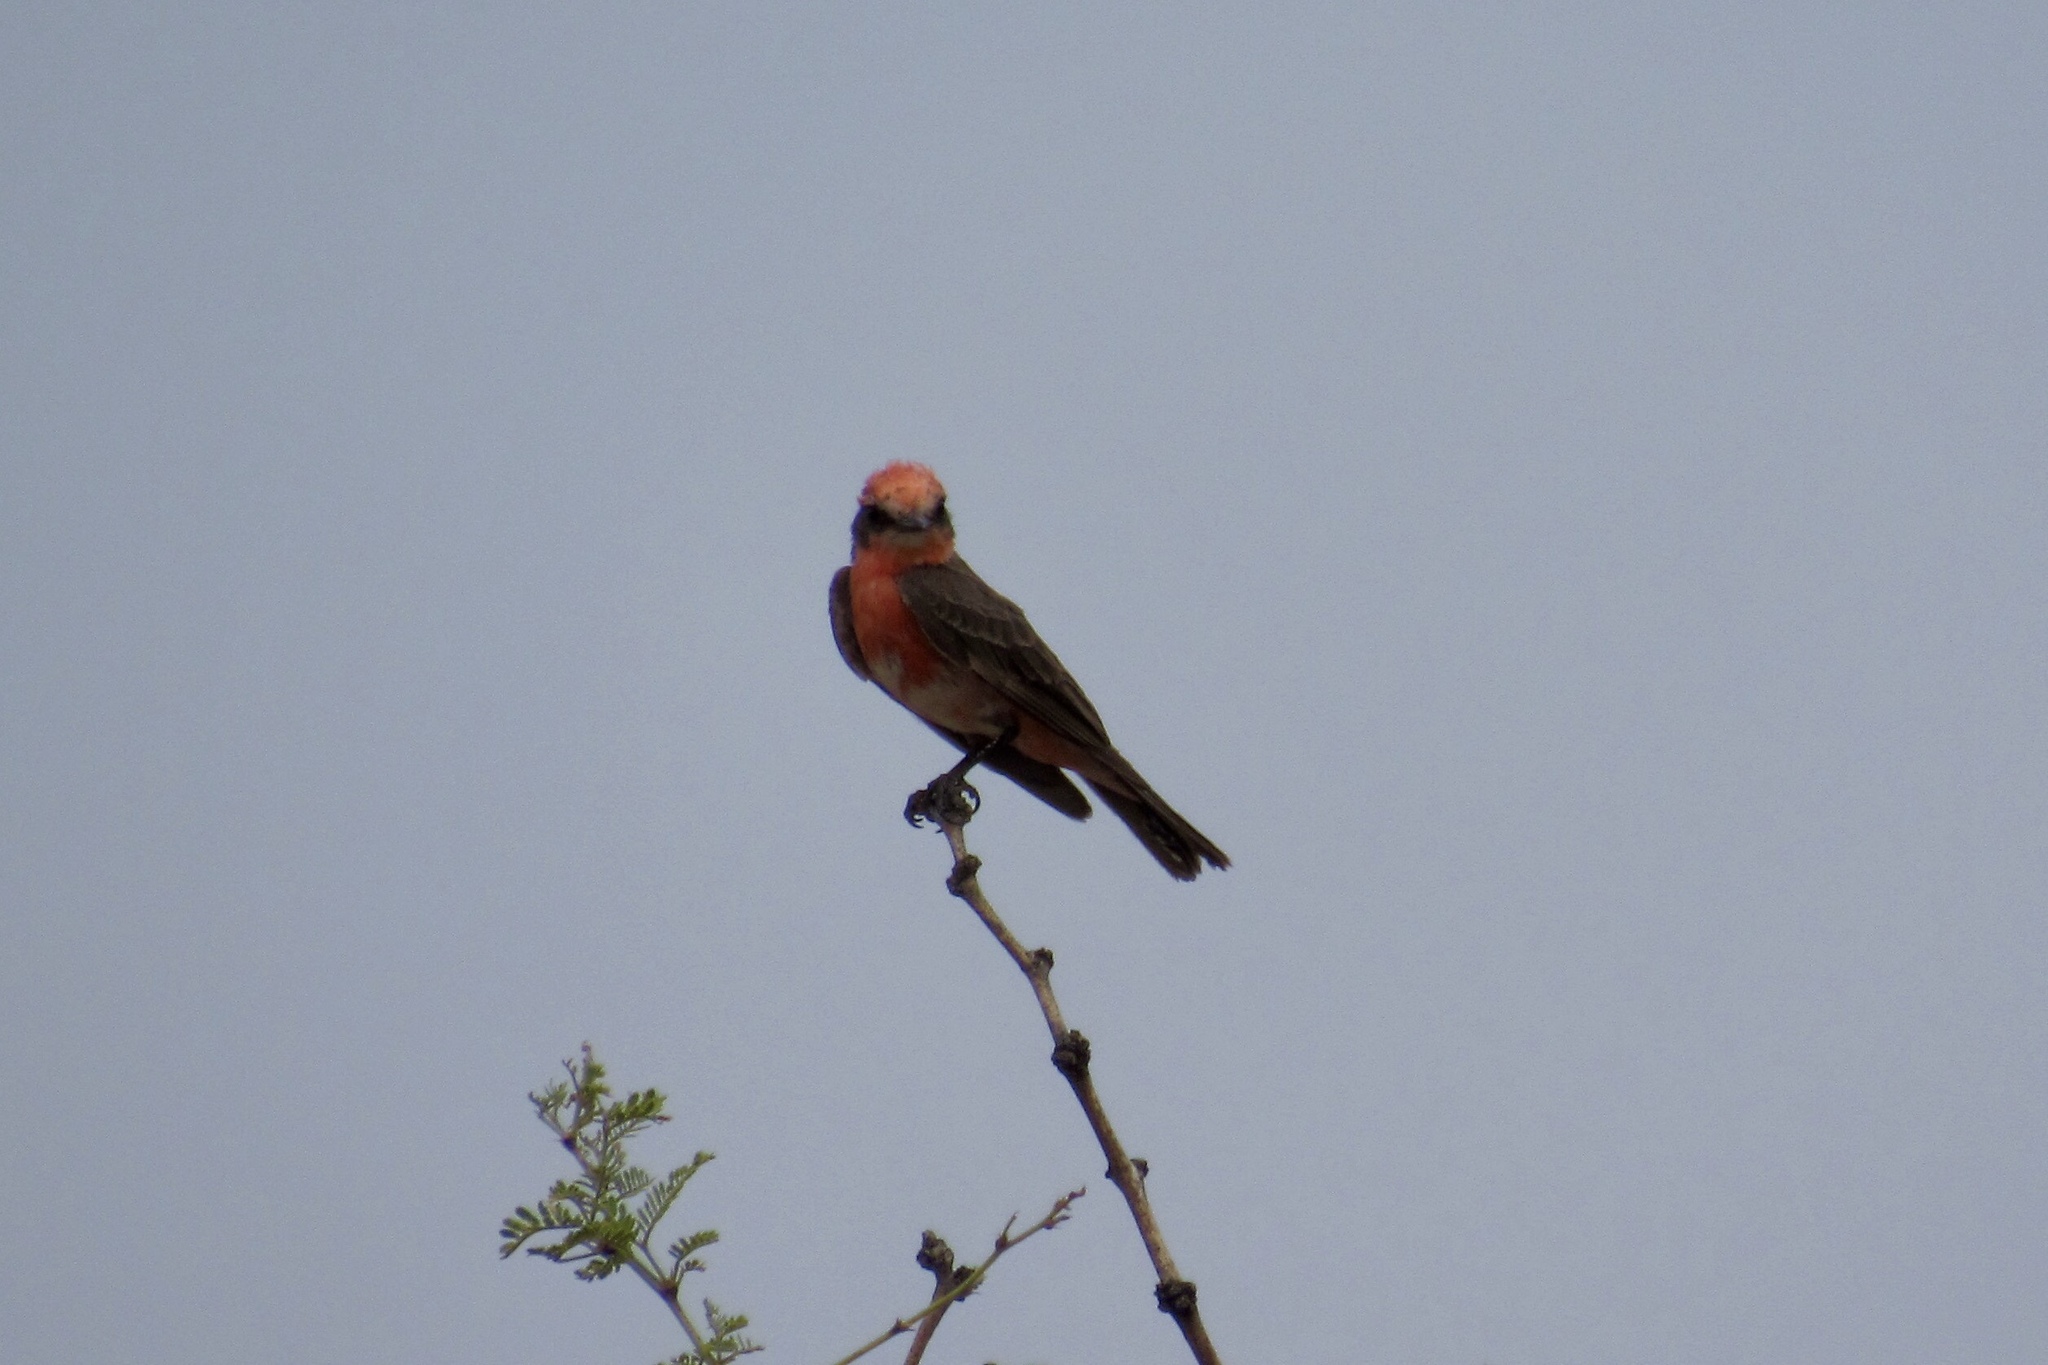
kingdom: Animalia
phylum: Chordata
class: Aves
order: Passeriformes
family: Tyrannidae
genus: Pyrocephalus
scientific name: Pyrocephalus rubinus
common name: Vermilion flycatcher
